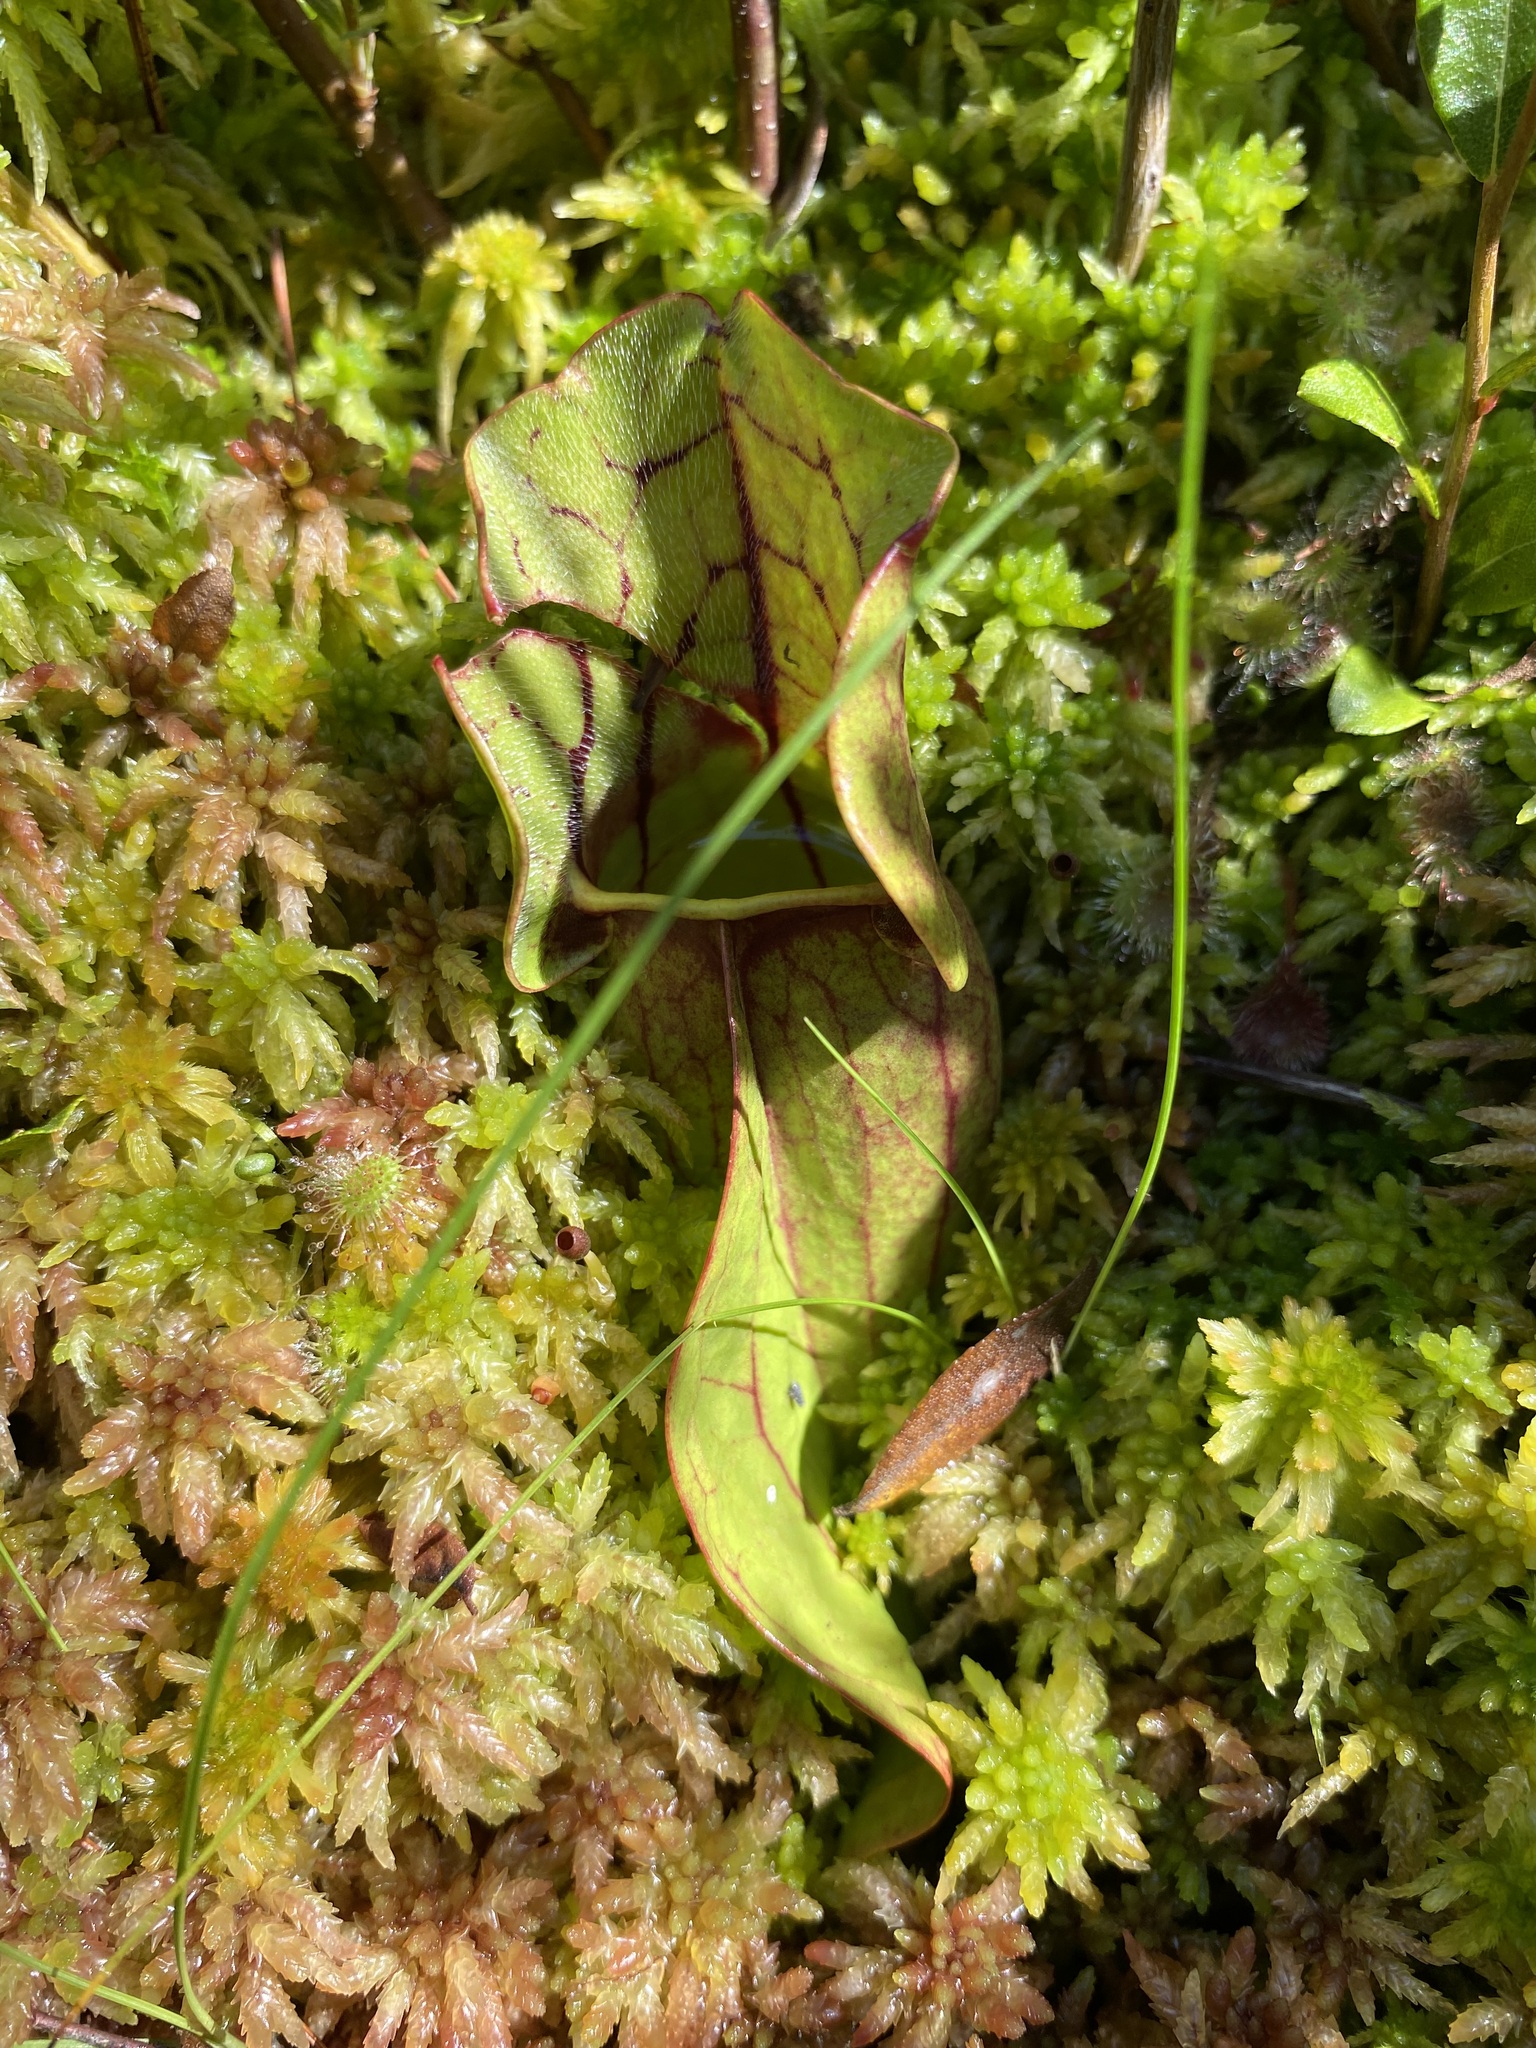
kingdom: Plantae
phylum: Tracheophyta
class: Magnoliopsida
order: Ericales
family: Sarraceniaceae
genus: Sarracenia
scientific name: Sarracenia purpurea
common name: Pitcherplant
